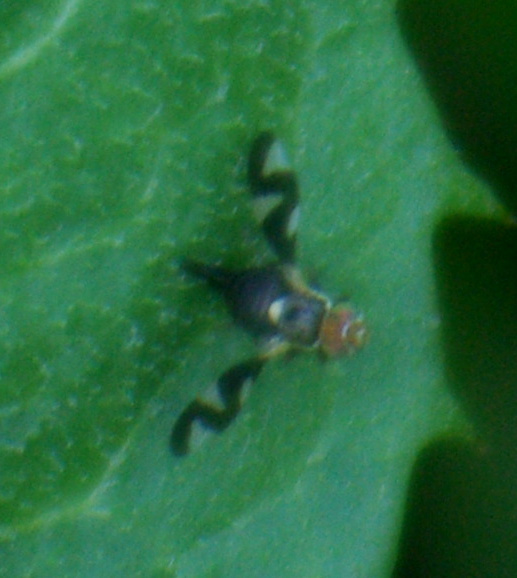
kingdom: Animalia
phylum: Arthropoda
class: Insecta
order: Diptera
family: Tephritidae
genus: Urophora
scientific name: Urophora cardui
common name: Fruit fly
